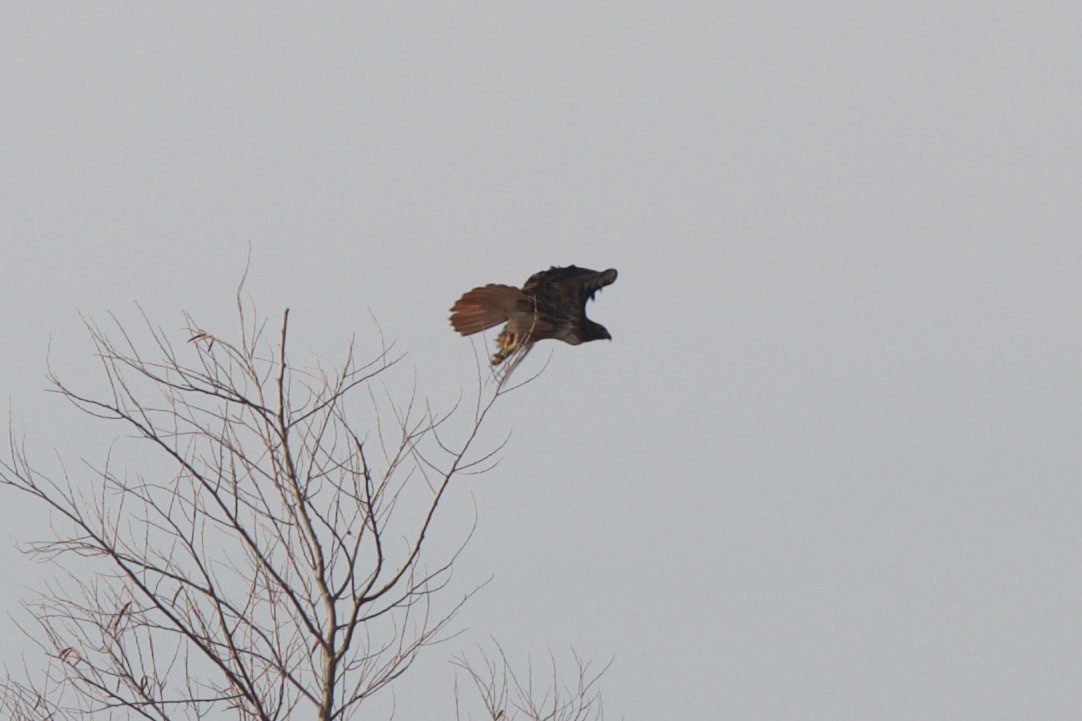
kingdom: Animalia
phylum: Chordata
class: Aves
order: Accipitriformes
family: Accipitridae
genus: Buteo
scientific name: Buteo jamaicensis
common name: Red-tailed hawk
